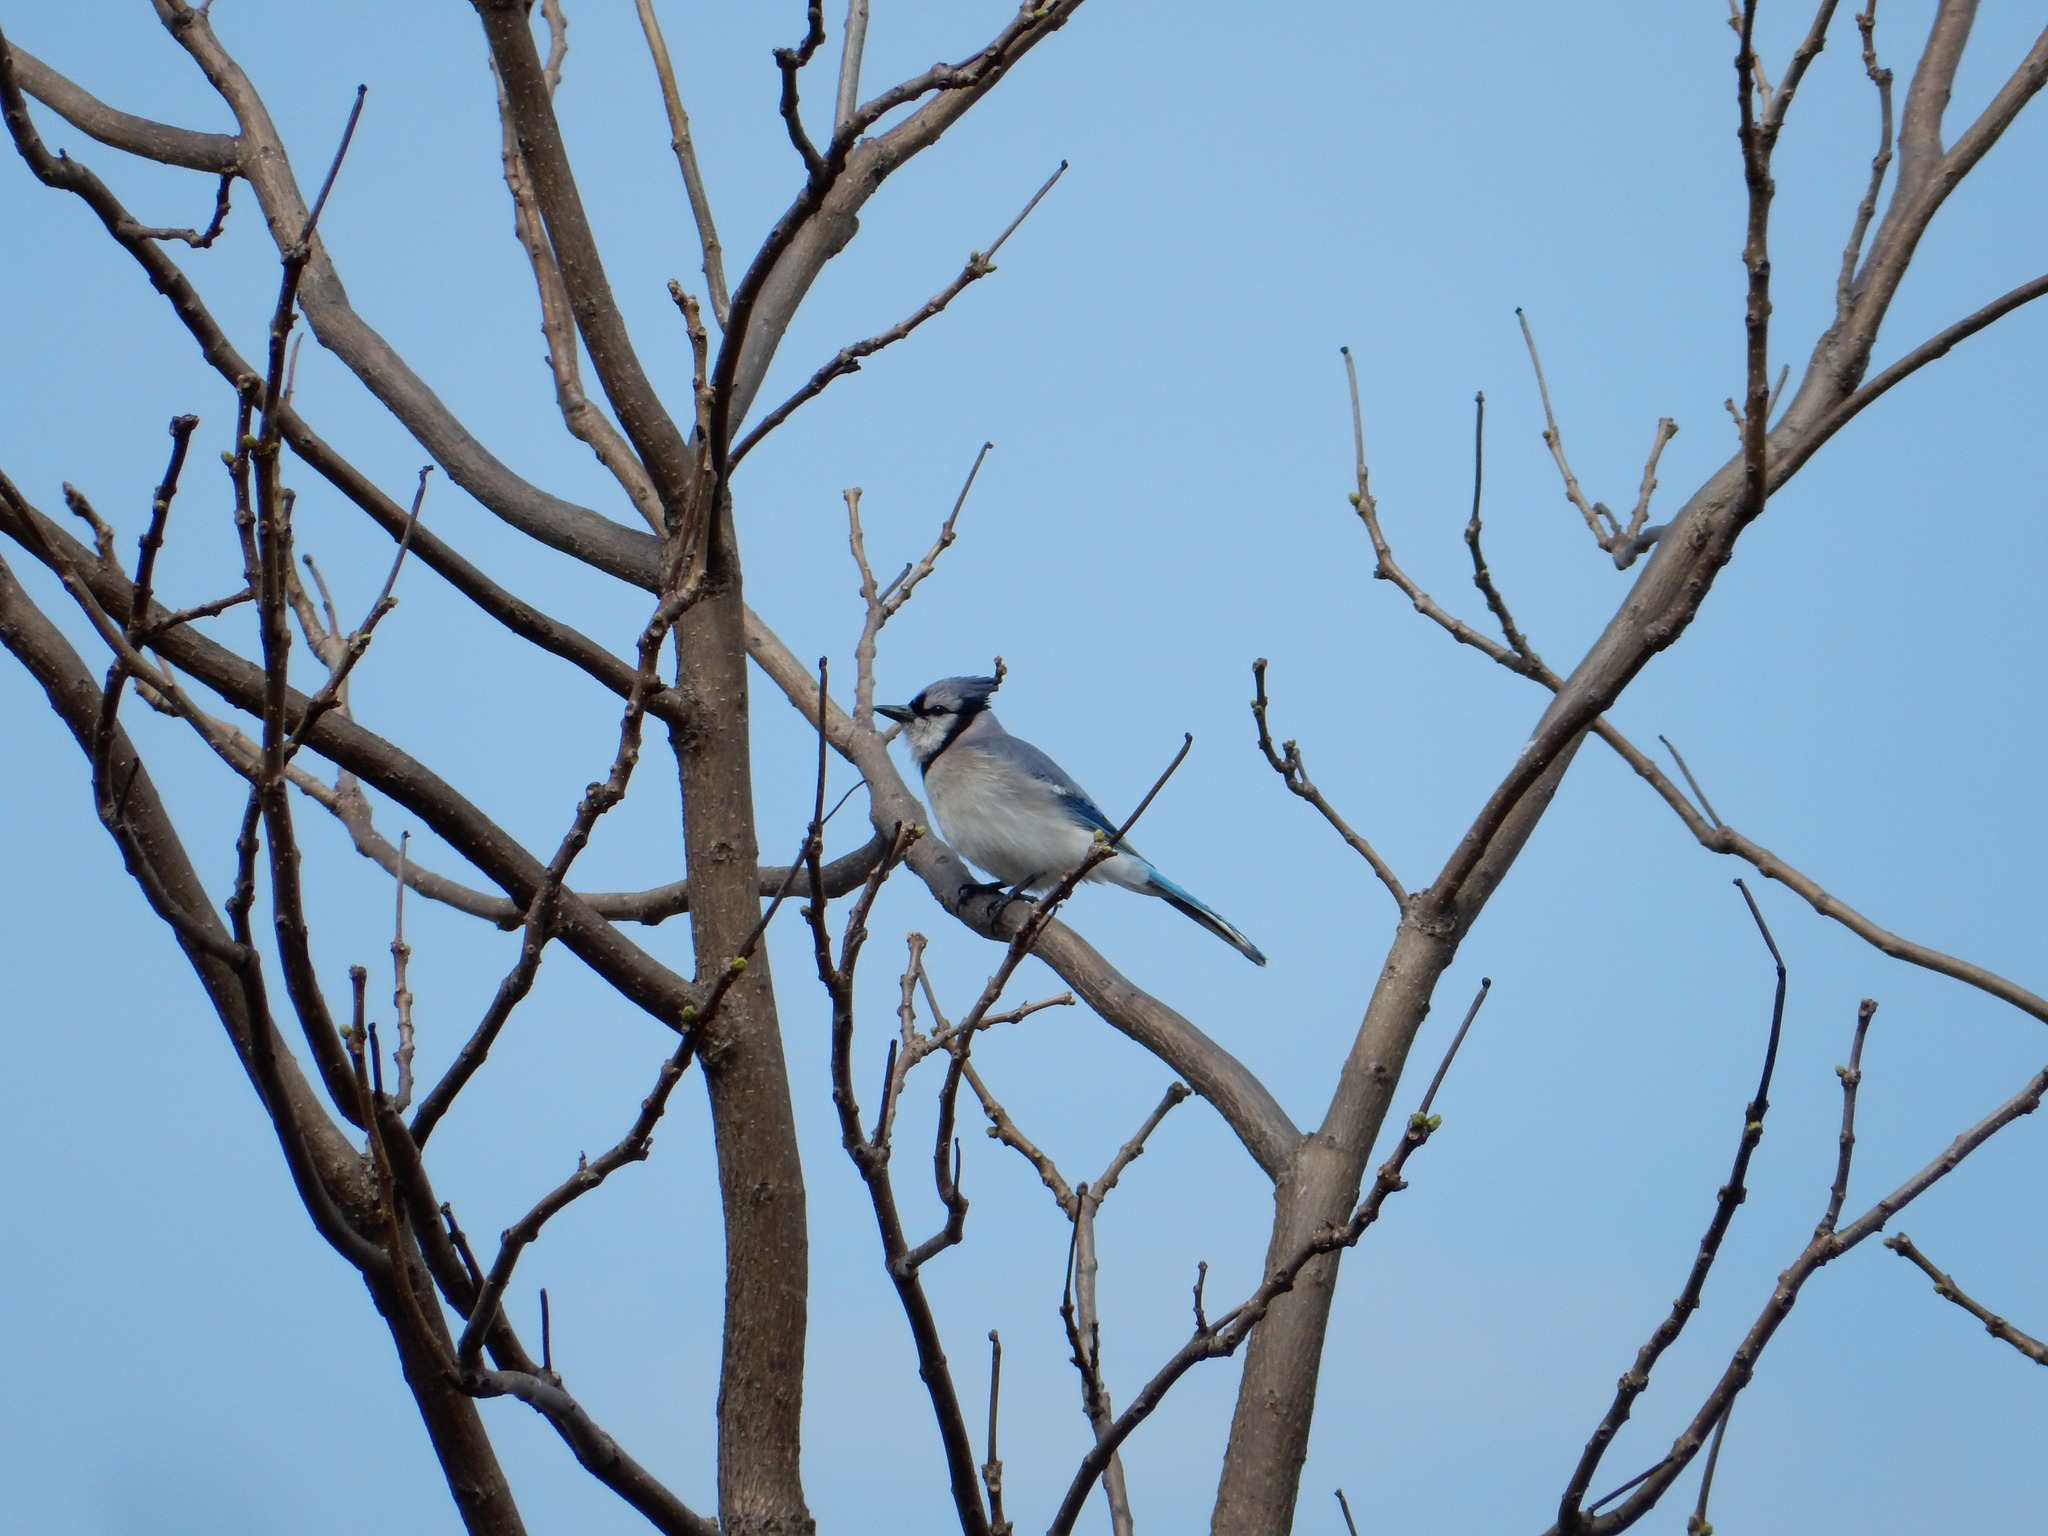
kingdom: Animalia
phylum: Chordata
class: Aves
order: Passeriformes
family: Corvidae
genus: Cyanocitta
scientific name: Cyanocitta cristata
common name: Blue jay
